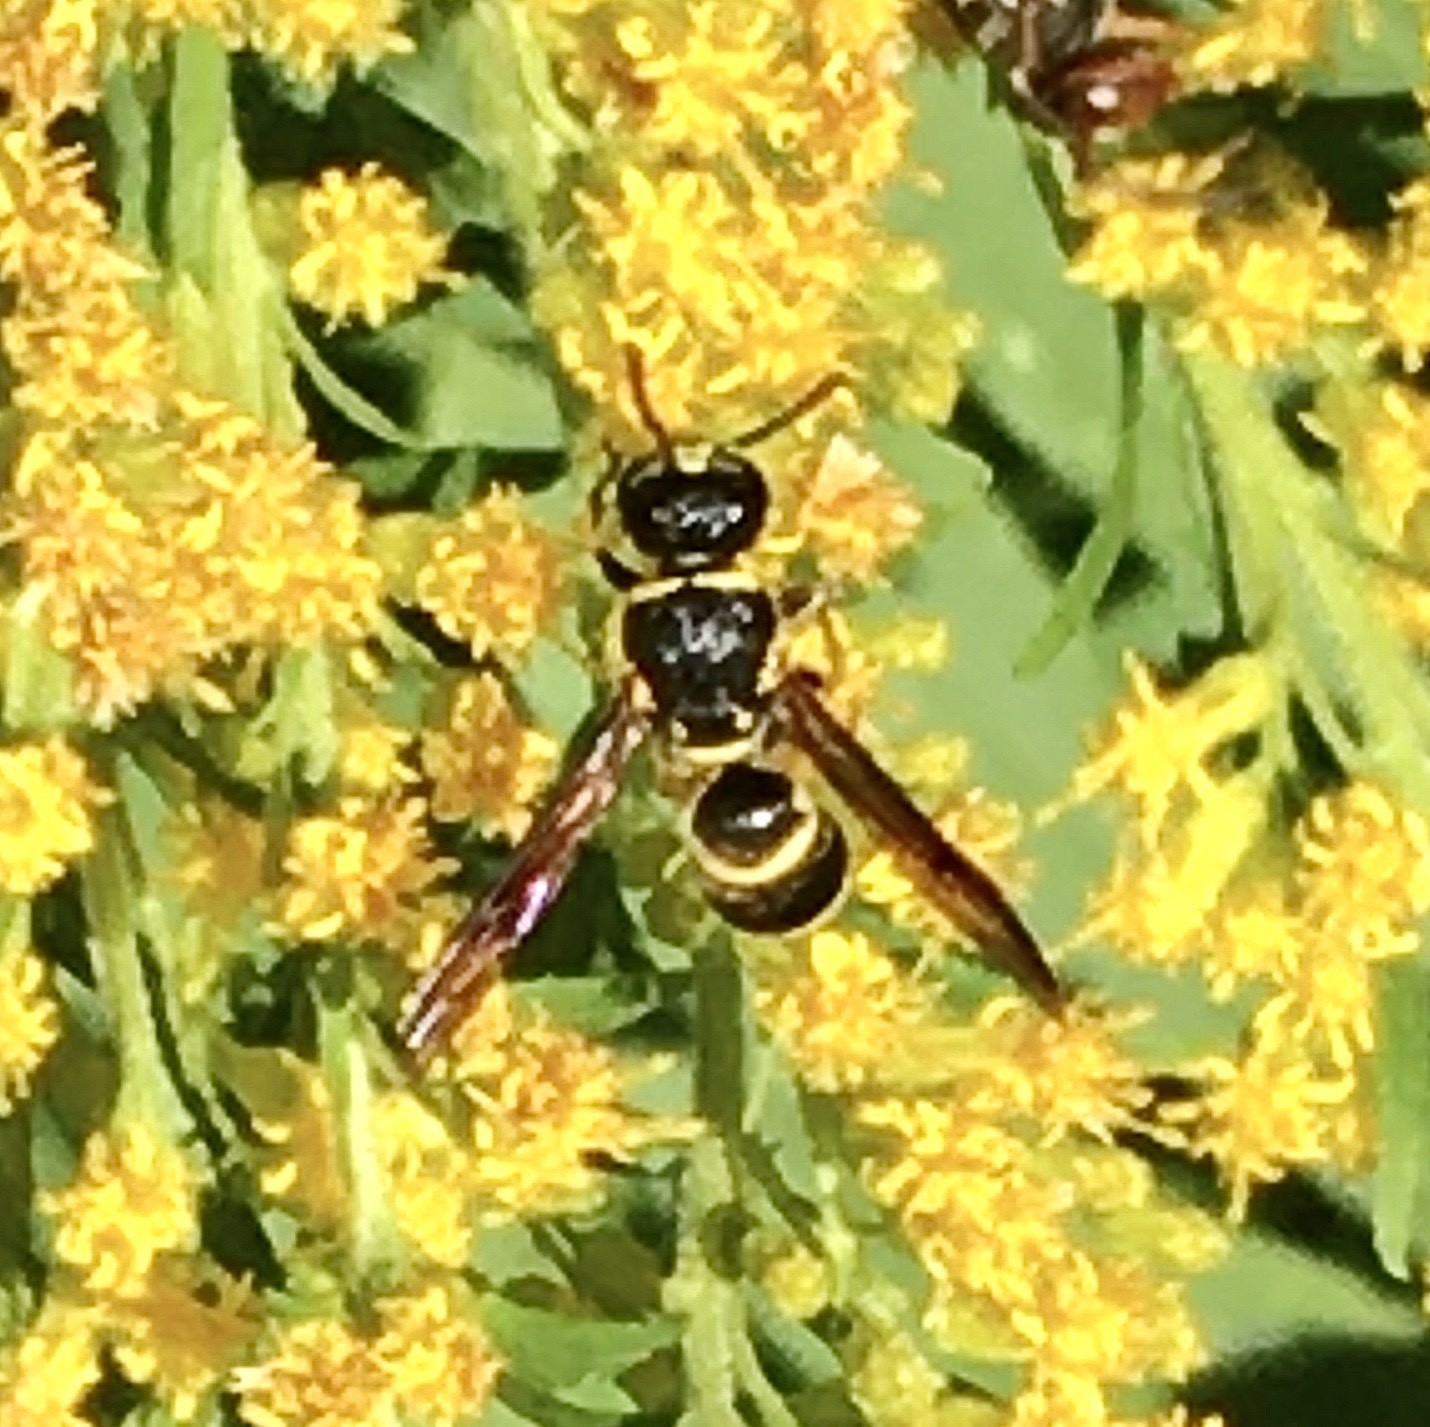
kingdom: Animalia
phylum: Arthropoda
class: Insecta
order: Hymenoptera
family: Eumenidae
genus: Euodynerus
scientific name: Euodynerus boscii
